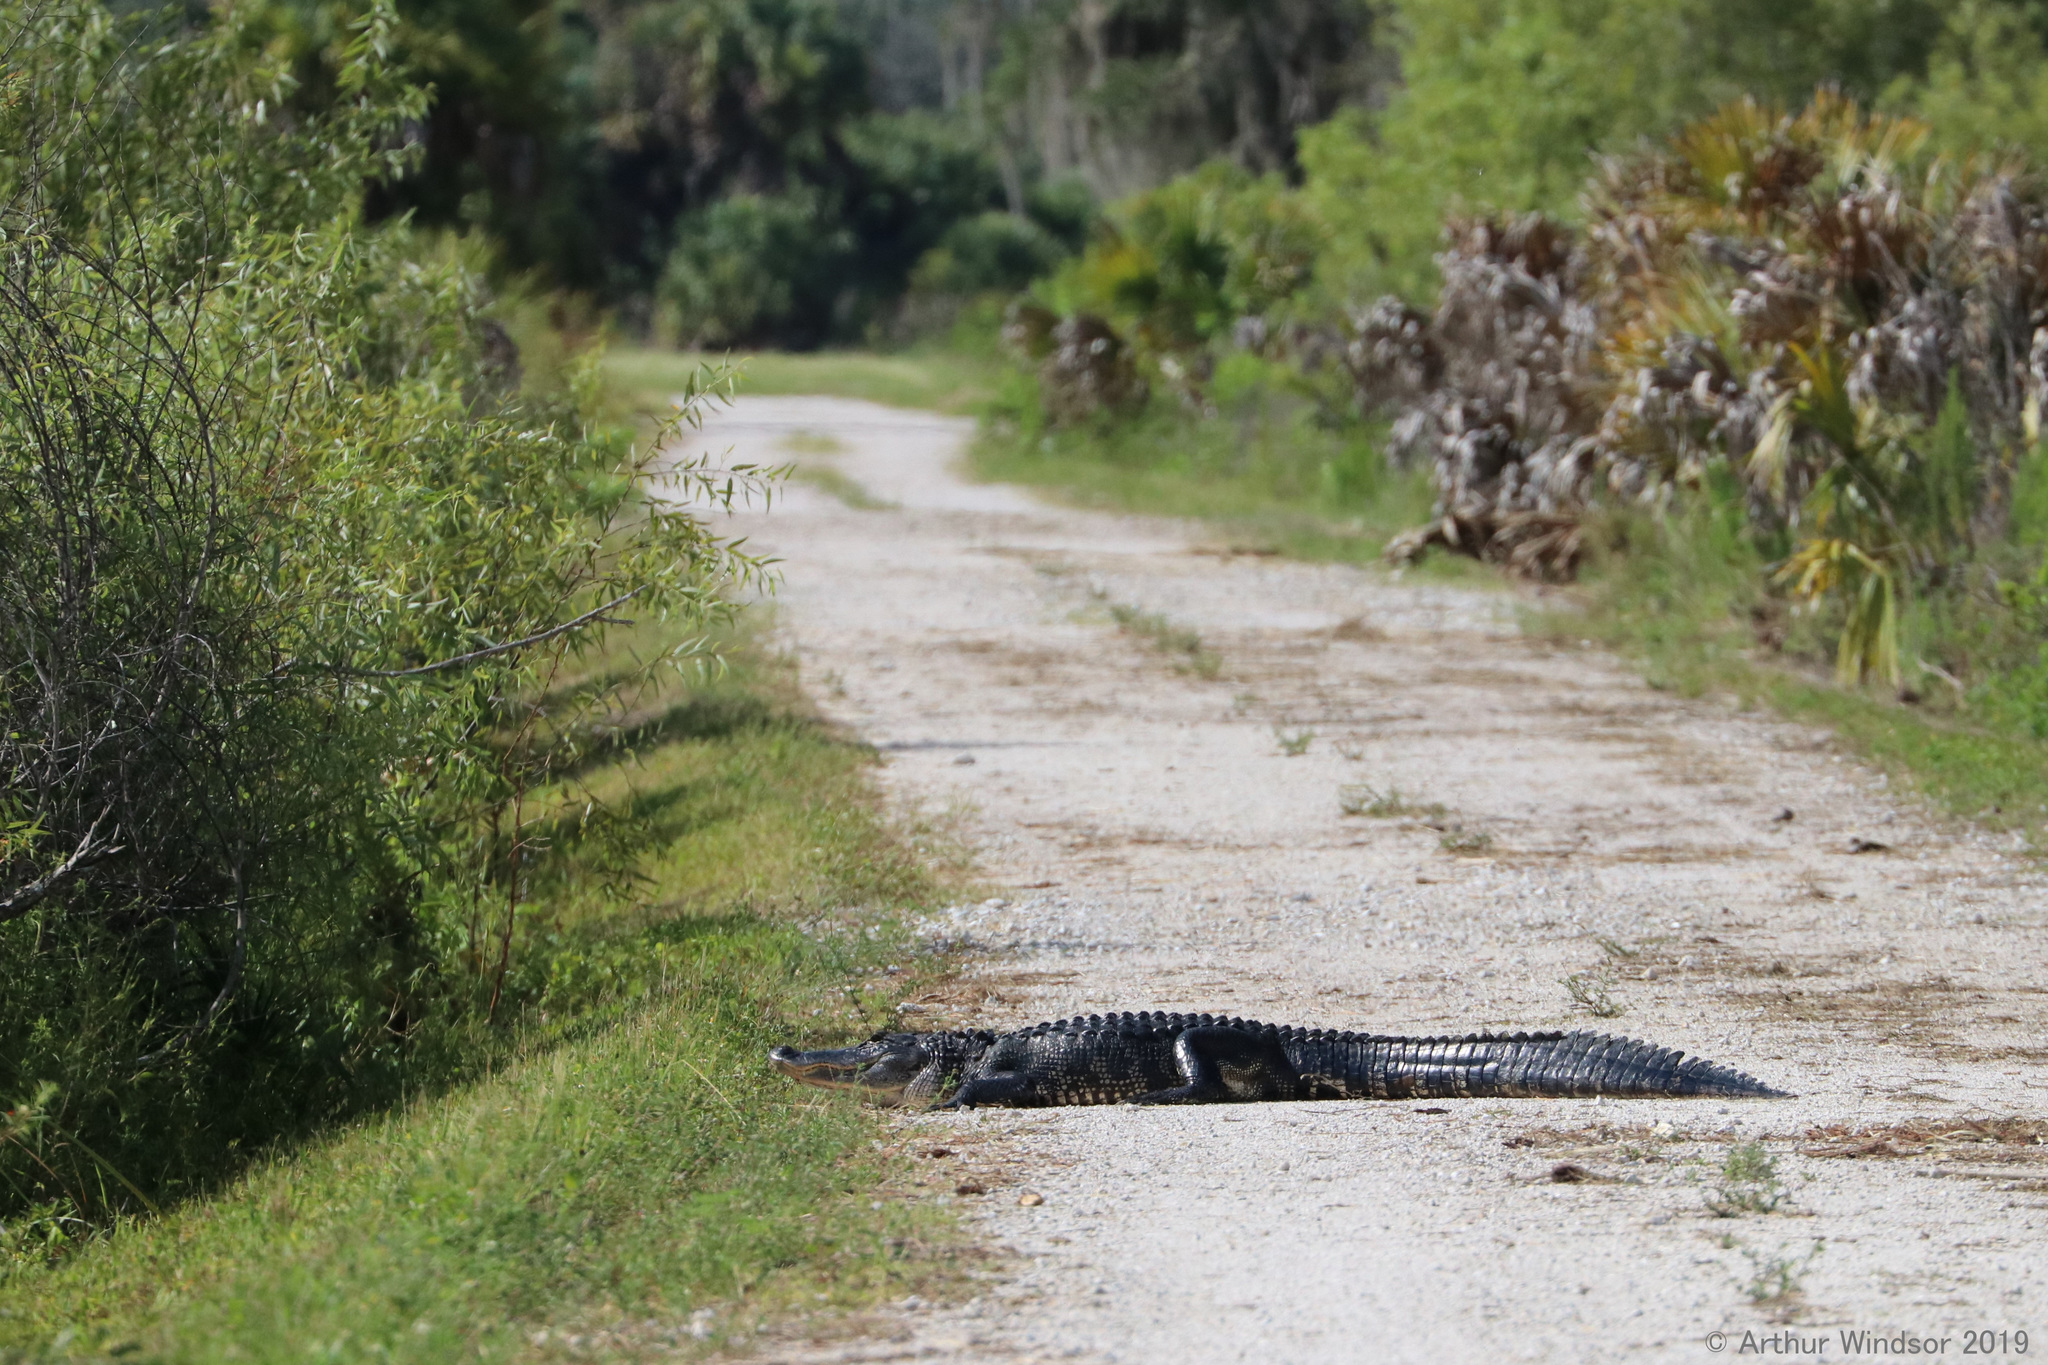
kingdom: Animalia
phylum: Chordata
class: Crocodylia
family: Alligatoridae
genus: Alligator
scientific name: Alligator mississippiensis
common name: American alligator
